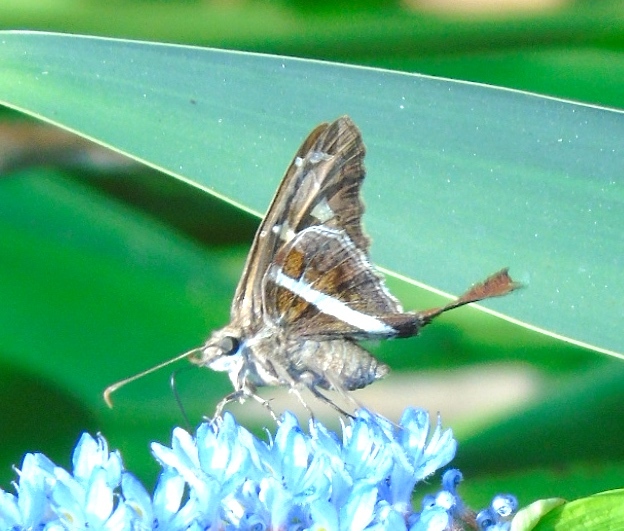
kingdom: Animalia
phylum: Arthropoda
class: Insecta
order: Lepidoptera
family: Hesperiidae
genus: Chioides
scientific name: Chioides catillus
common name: Silverbanded skipper
